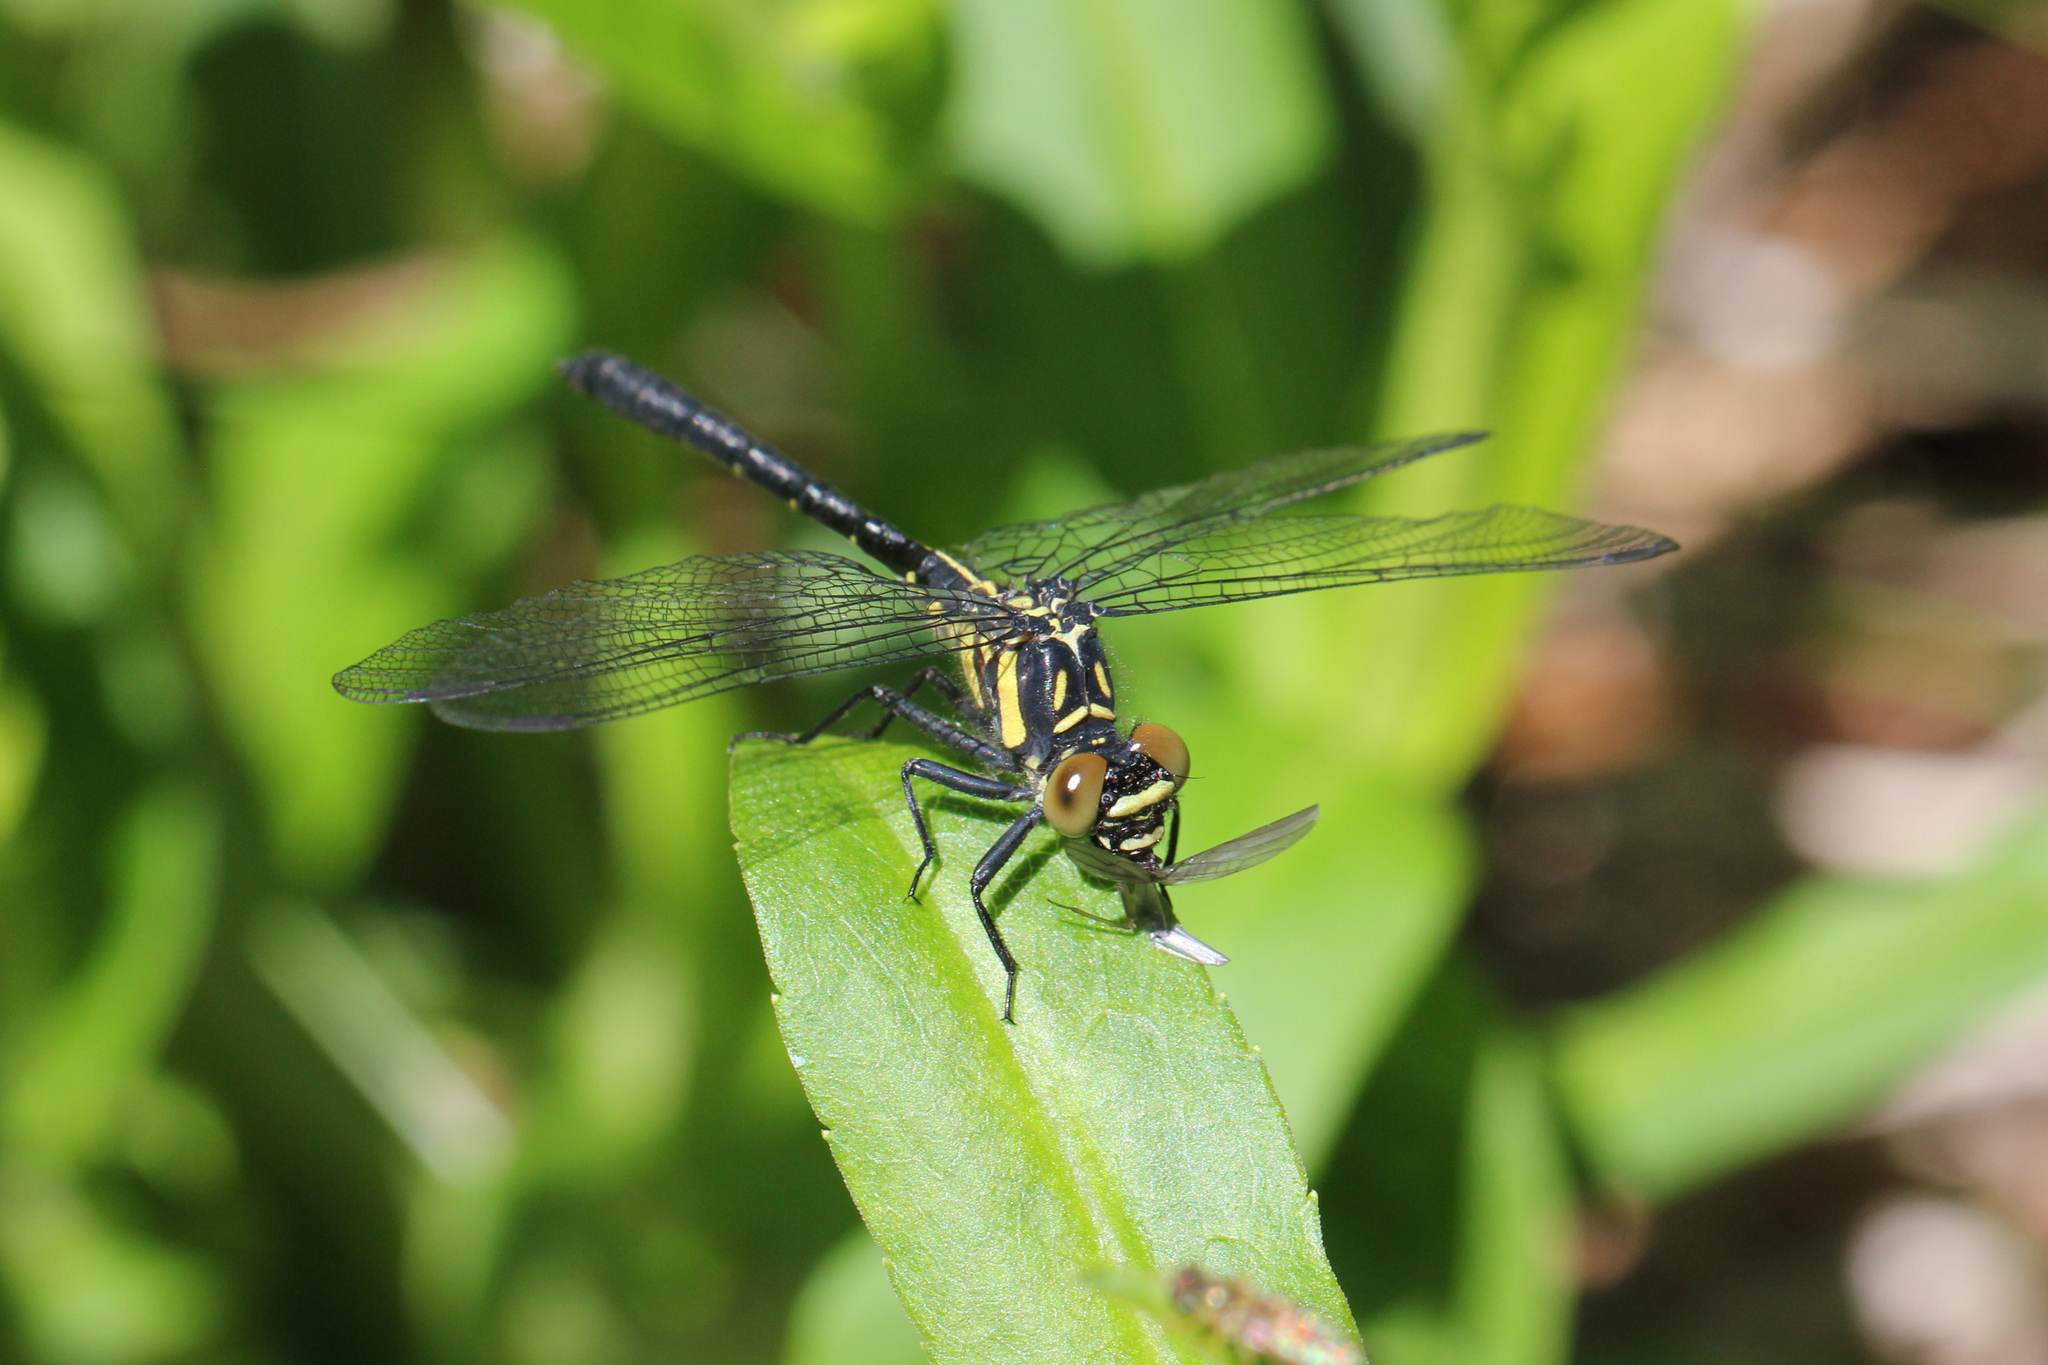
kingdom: Animalia
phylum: Arthropoda
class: Insecta
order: Odonata
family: Gomphidae
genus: Lanthus
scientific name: Lanthus parvulus
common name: Northern pygmy clubtail
